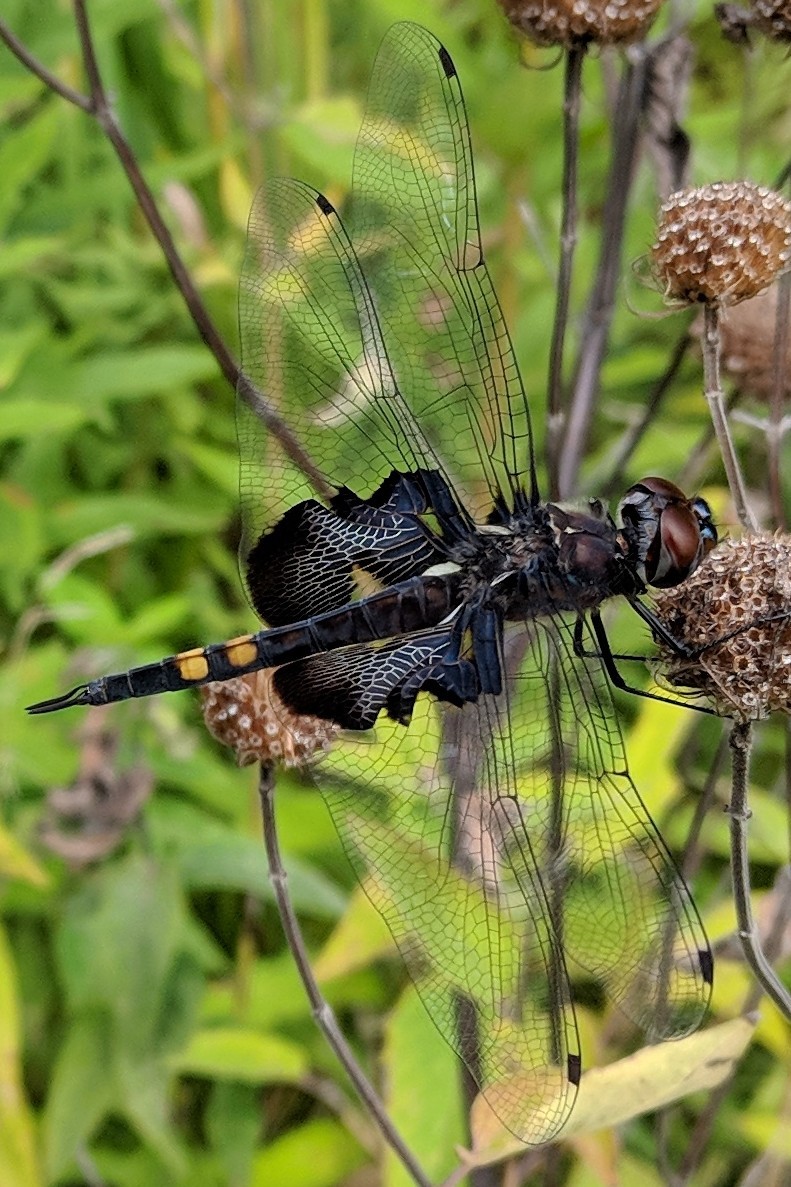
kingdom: Animalia
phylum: Arthropoda
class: Insecta
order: Odonata
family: Libellulidae
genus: Tramea
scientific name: Tramea lacerata
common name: Black saddlebags
